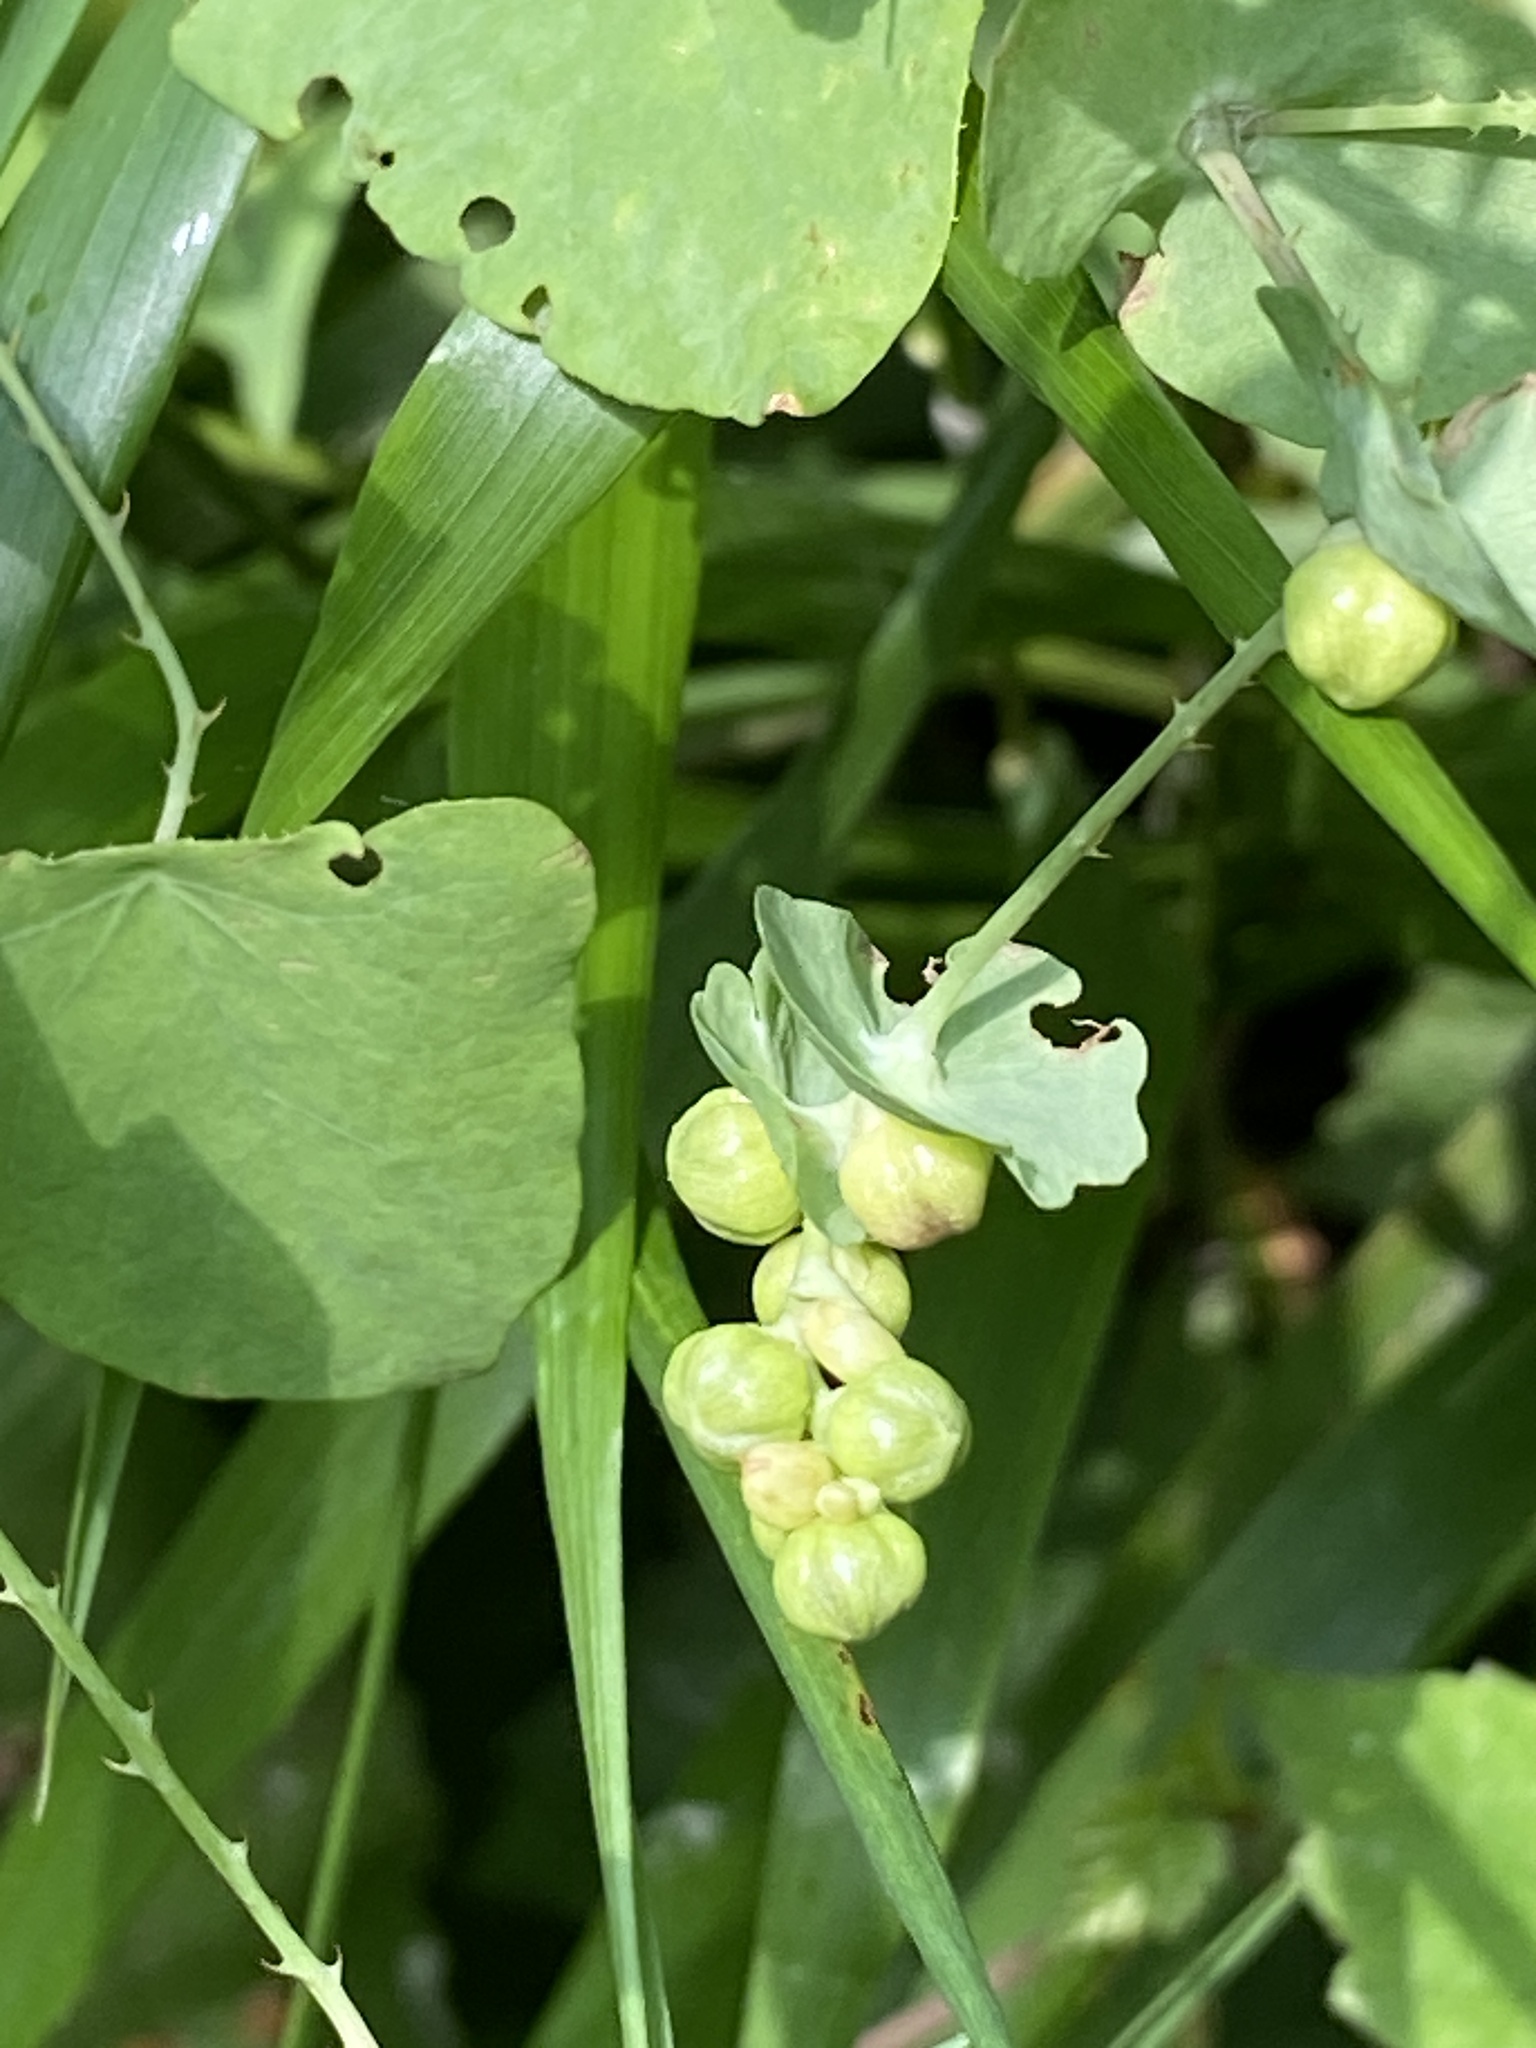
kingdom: Plantae
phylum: Tracheophyta
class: Magnoliopsida
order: Caryophyllales
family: Polygonaceae
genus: Persicaria
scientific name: Persicaria perfoliata
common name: Asiatic tearthumb
